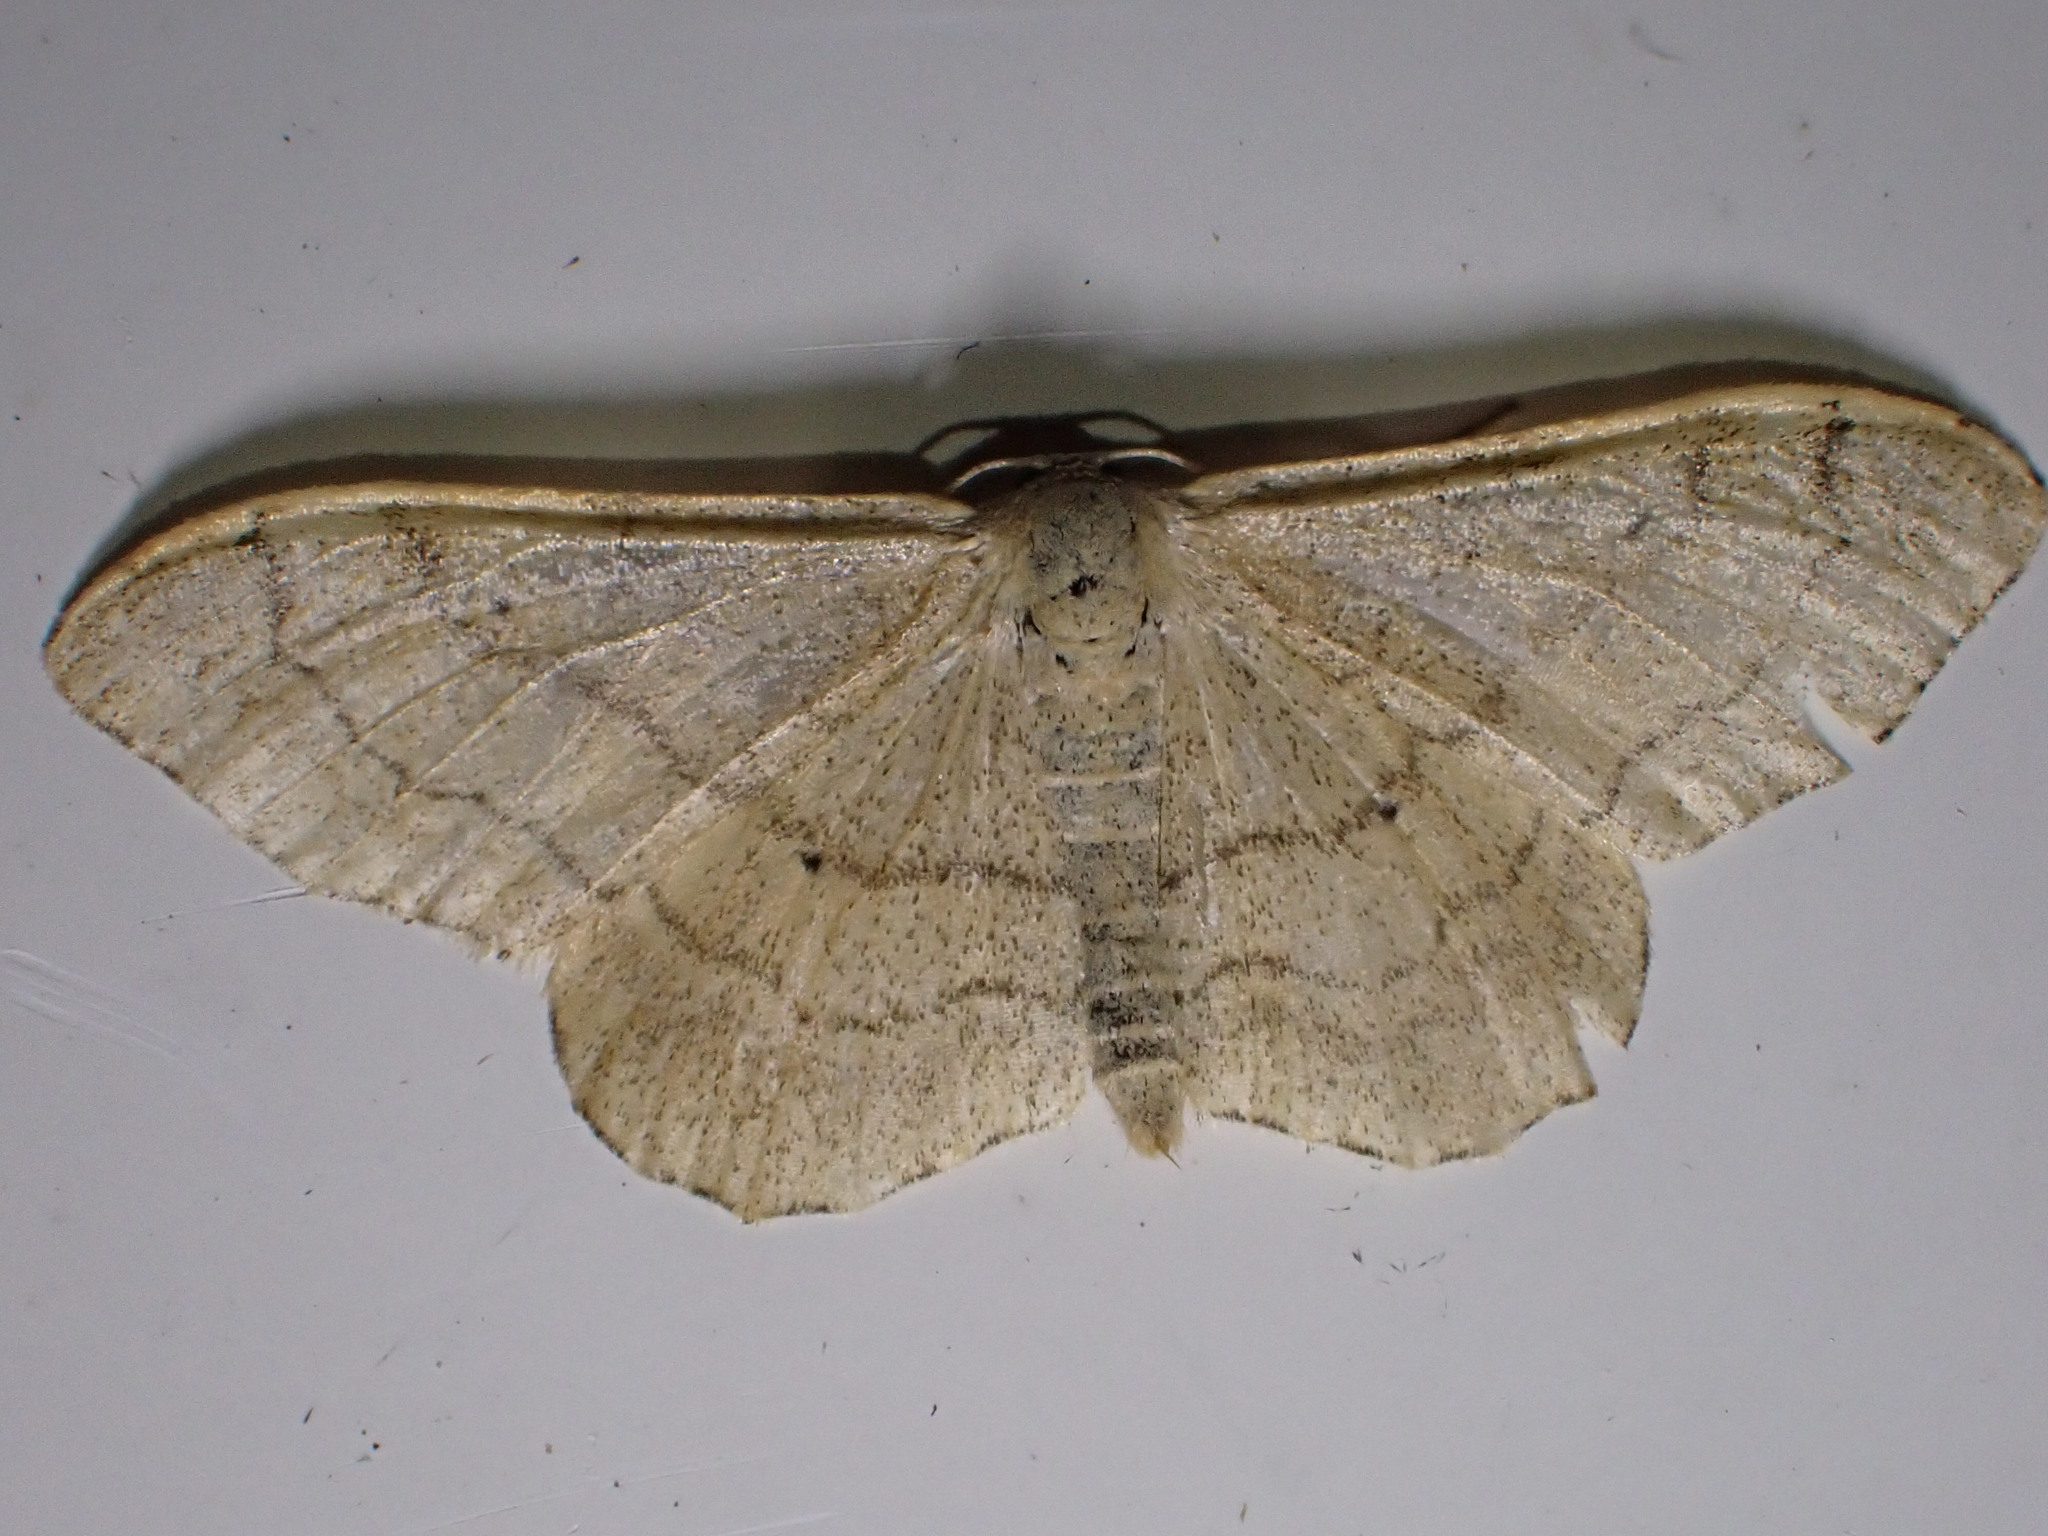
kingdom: Animalia
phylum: Arthropoda
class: Insecta
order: Lepidoptera
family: Geometridae
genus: Idaea
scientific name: Idaea aversata
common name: Riband wave
